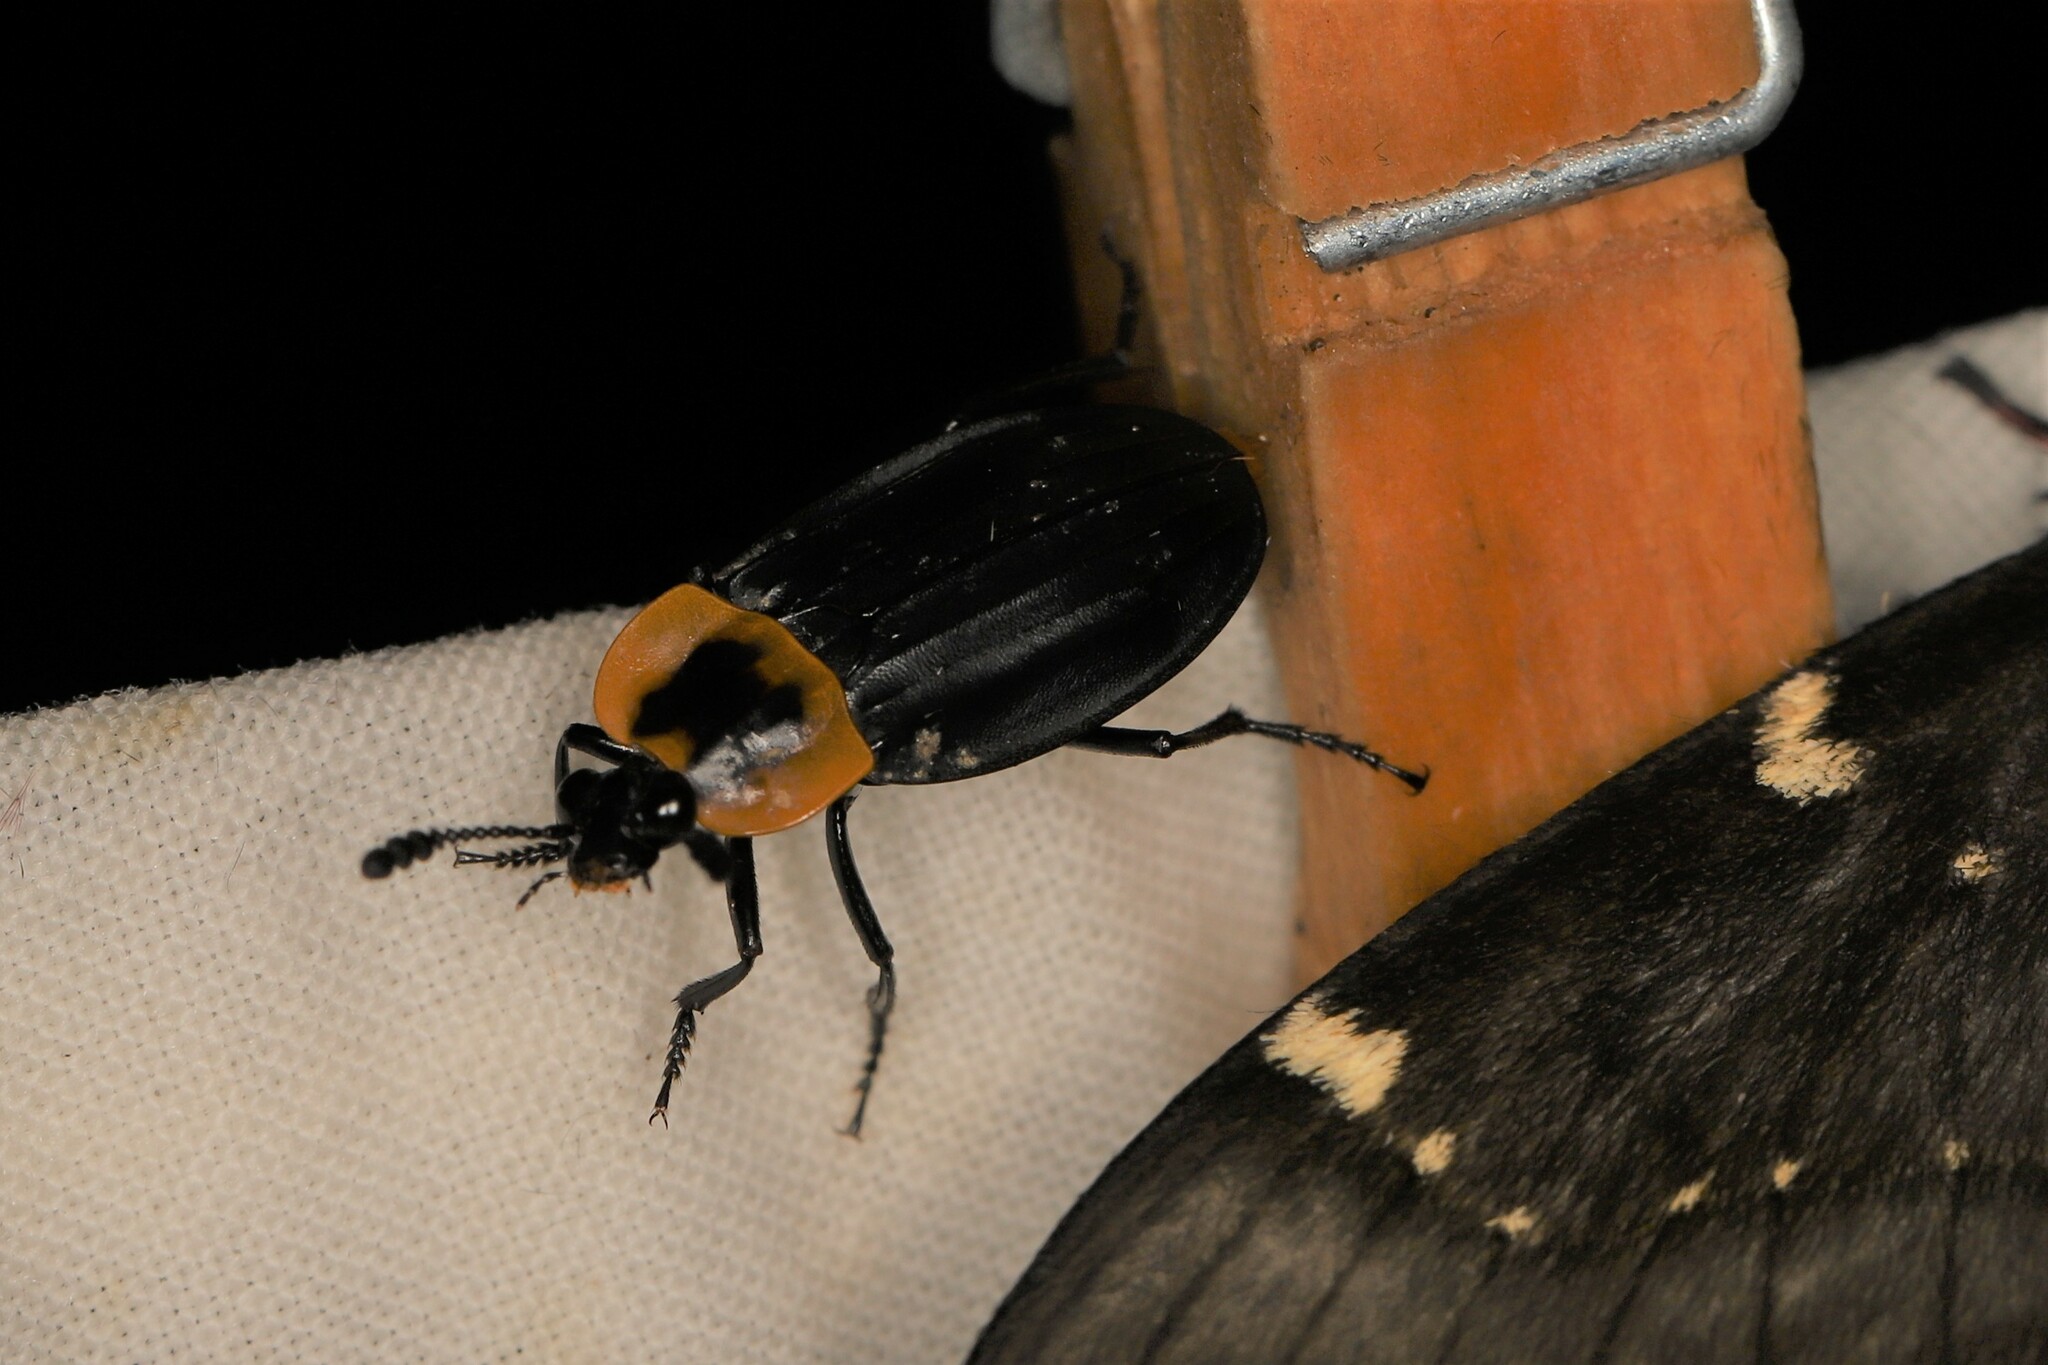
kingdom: Animalia
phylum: Arthropoda
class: Insecta
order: Coleoptera
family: Staphylinidae
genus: Oxelytrum
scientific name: Oxelytrum discicolle
